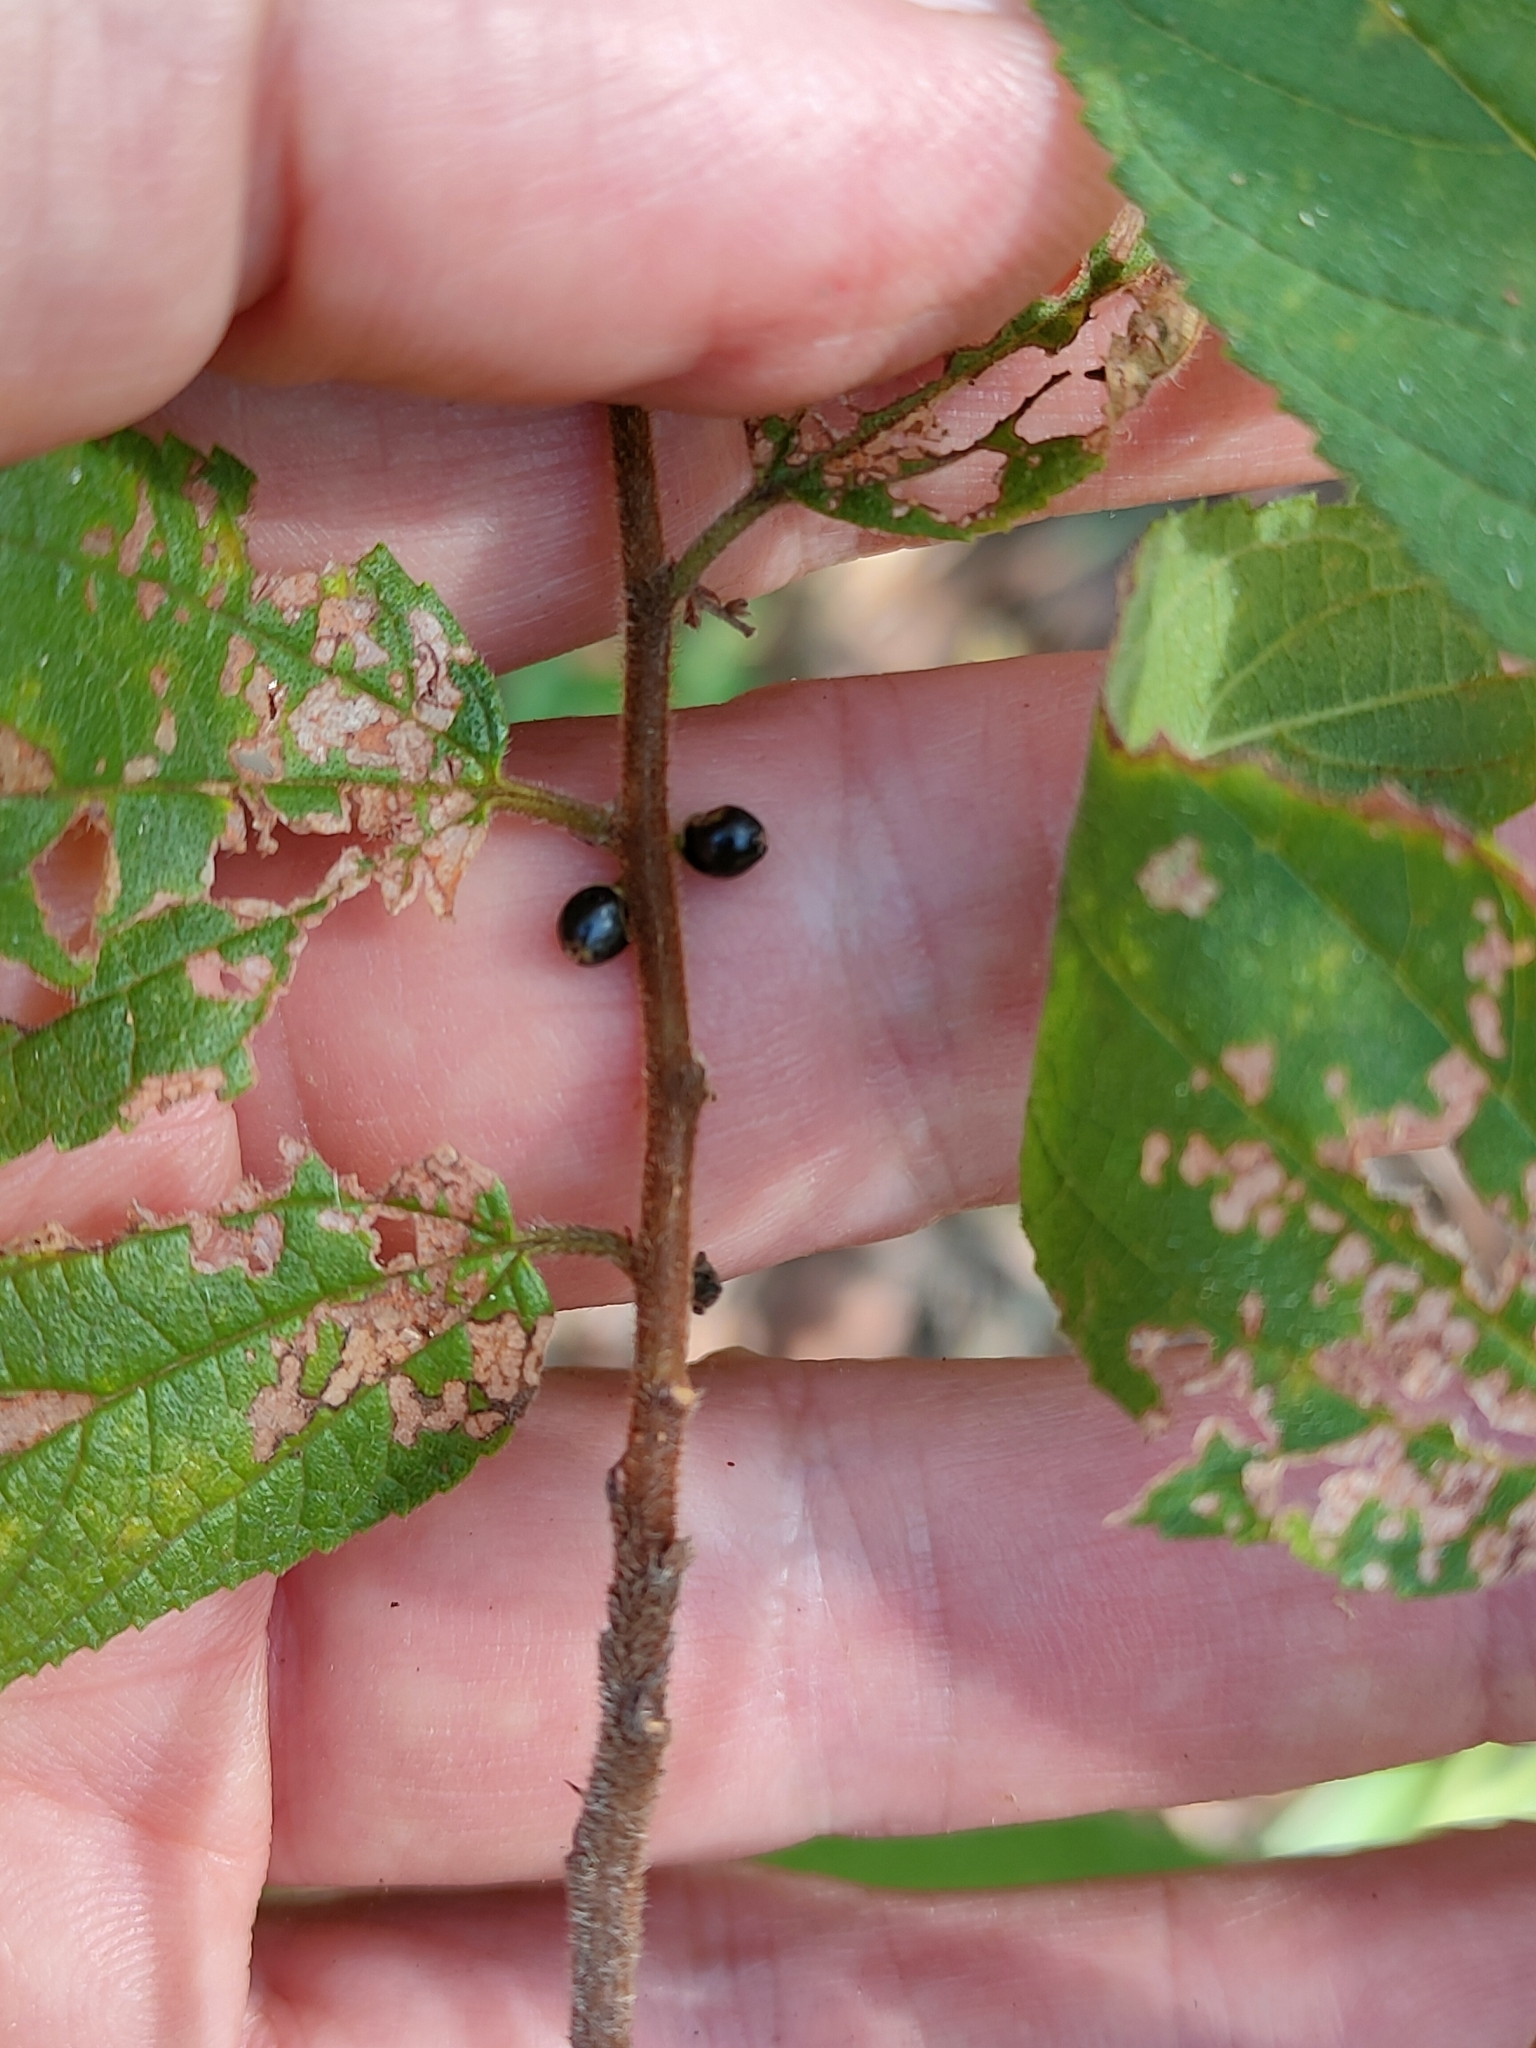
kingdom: Plantae
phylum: Tracheophyta
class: Magnoliopsida
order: Rosales
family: Cannabaceae
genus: Trema
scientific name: Trema tomentosum
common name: Peach-leaf-poisonbush
